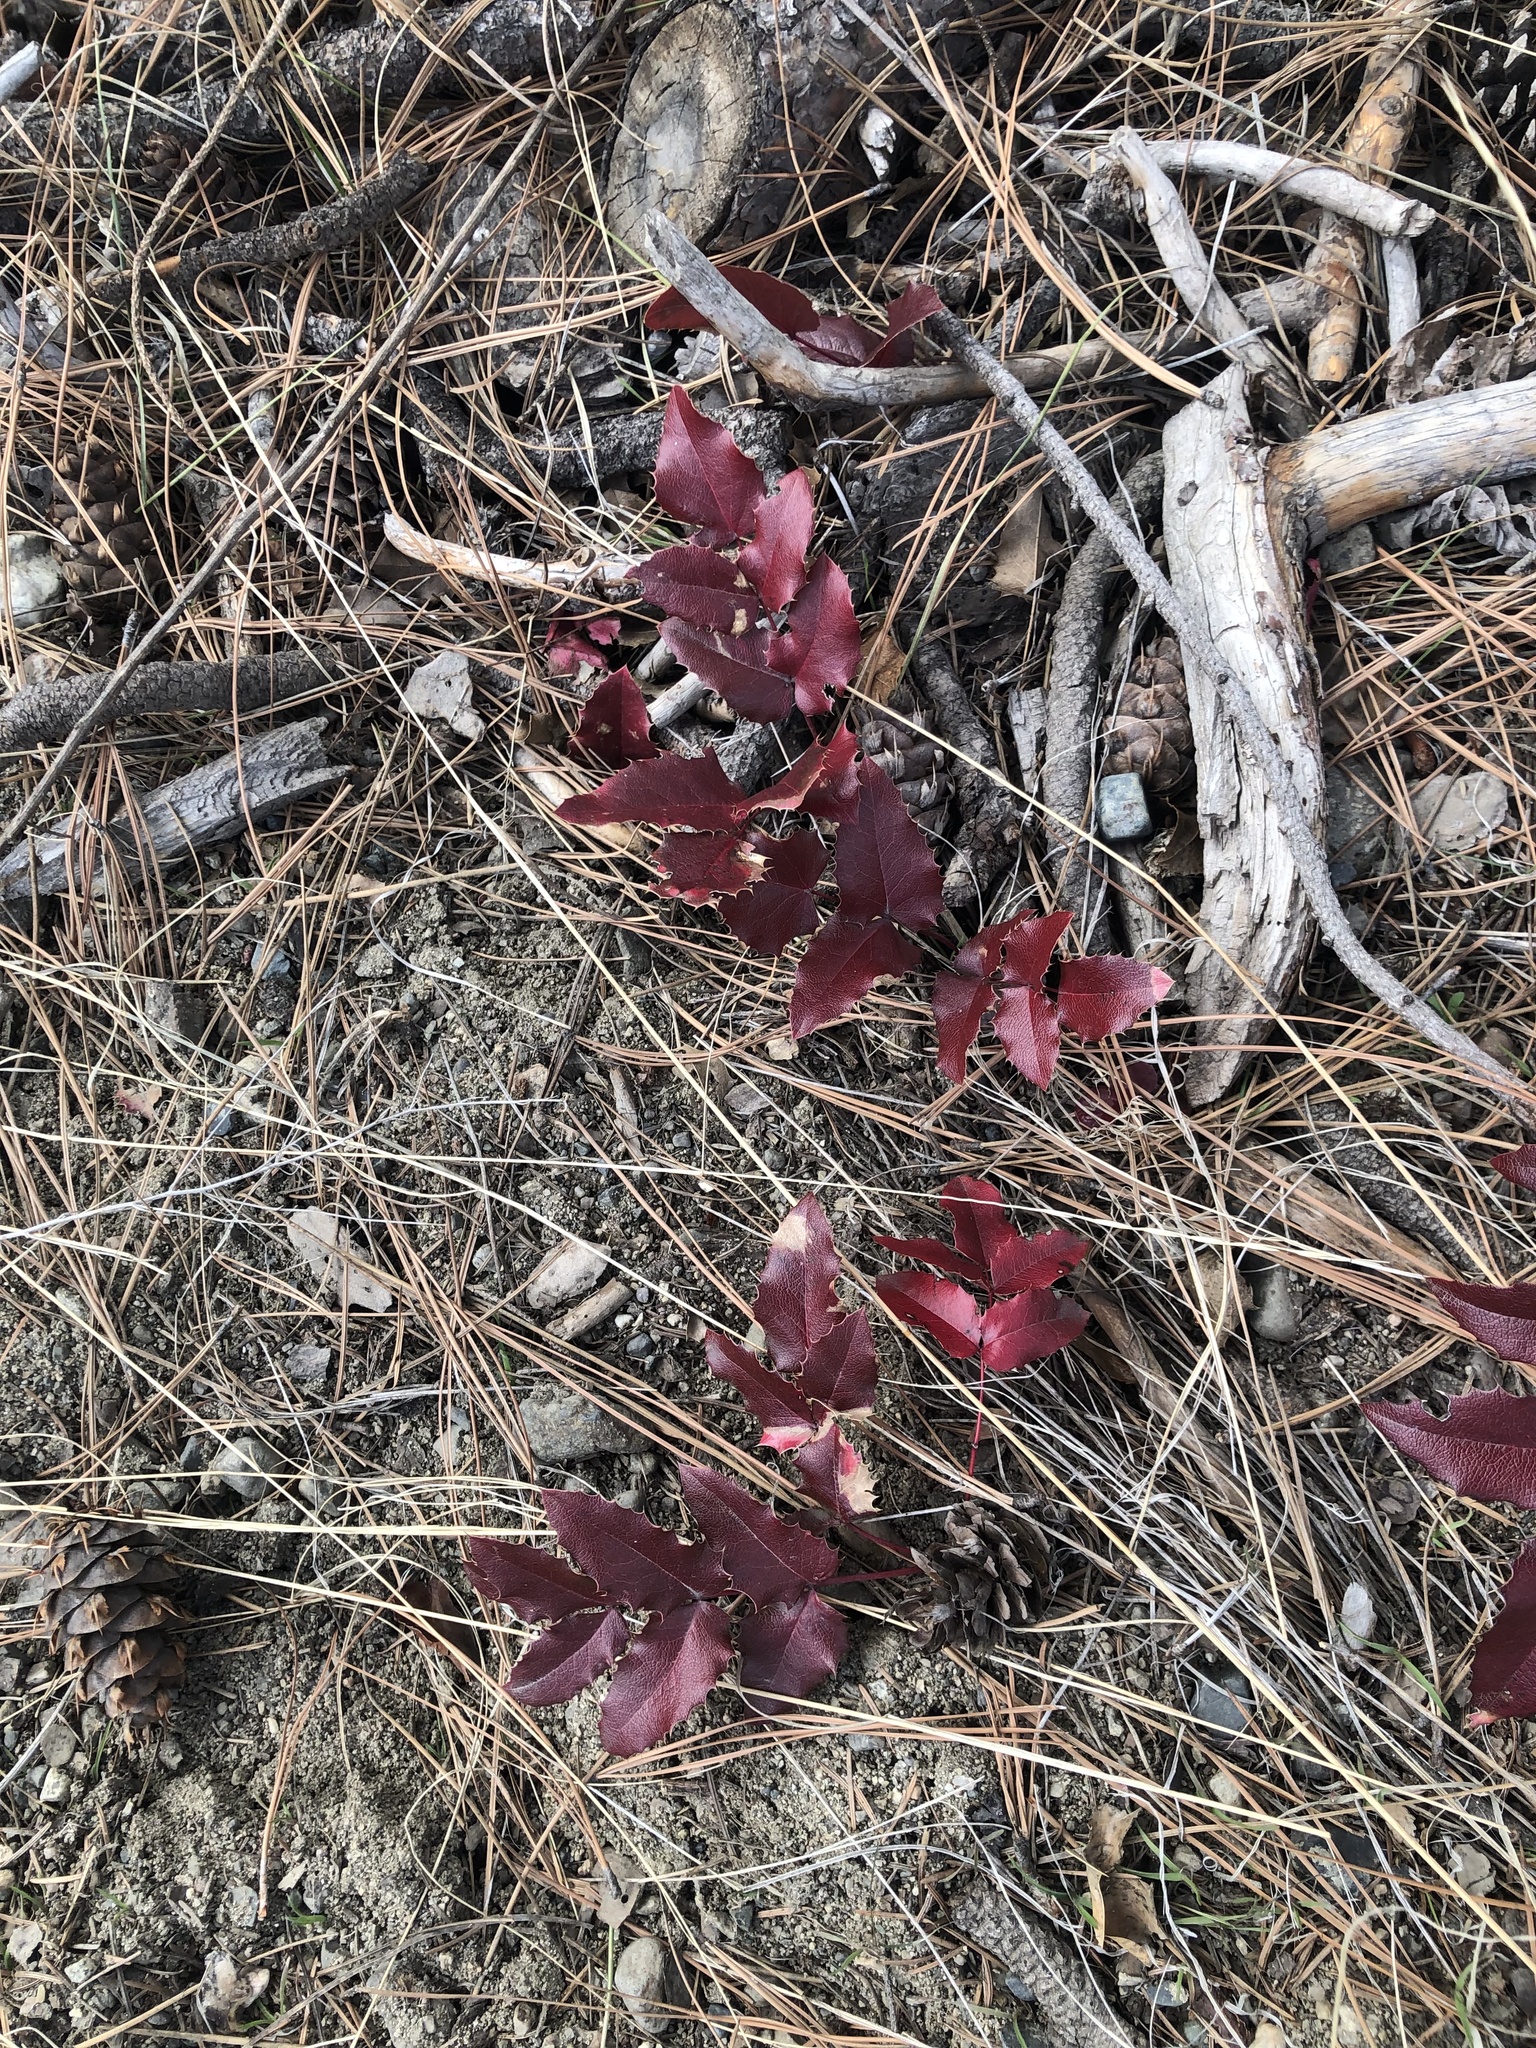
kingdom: Plantae
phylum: Tracheophyta
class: Magnoliopsida
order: Ranunculales
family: Berberidaceae
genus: Mahonia
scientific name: Mahonia aquifolium
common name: Oregon-grape
